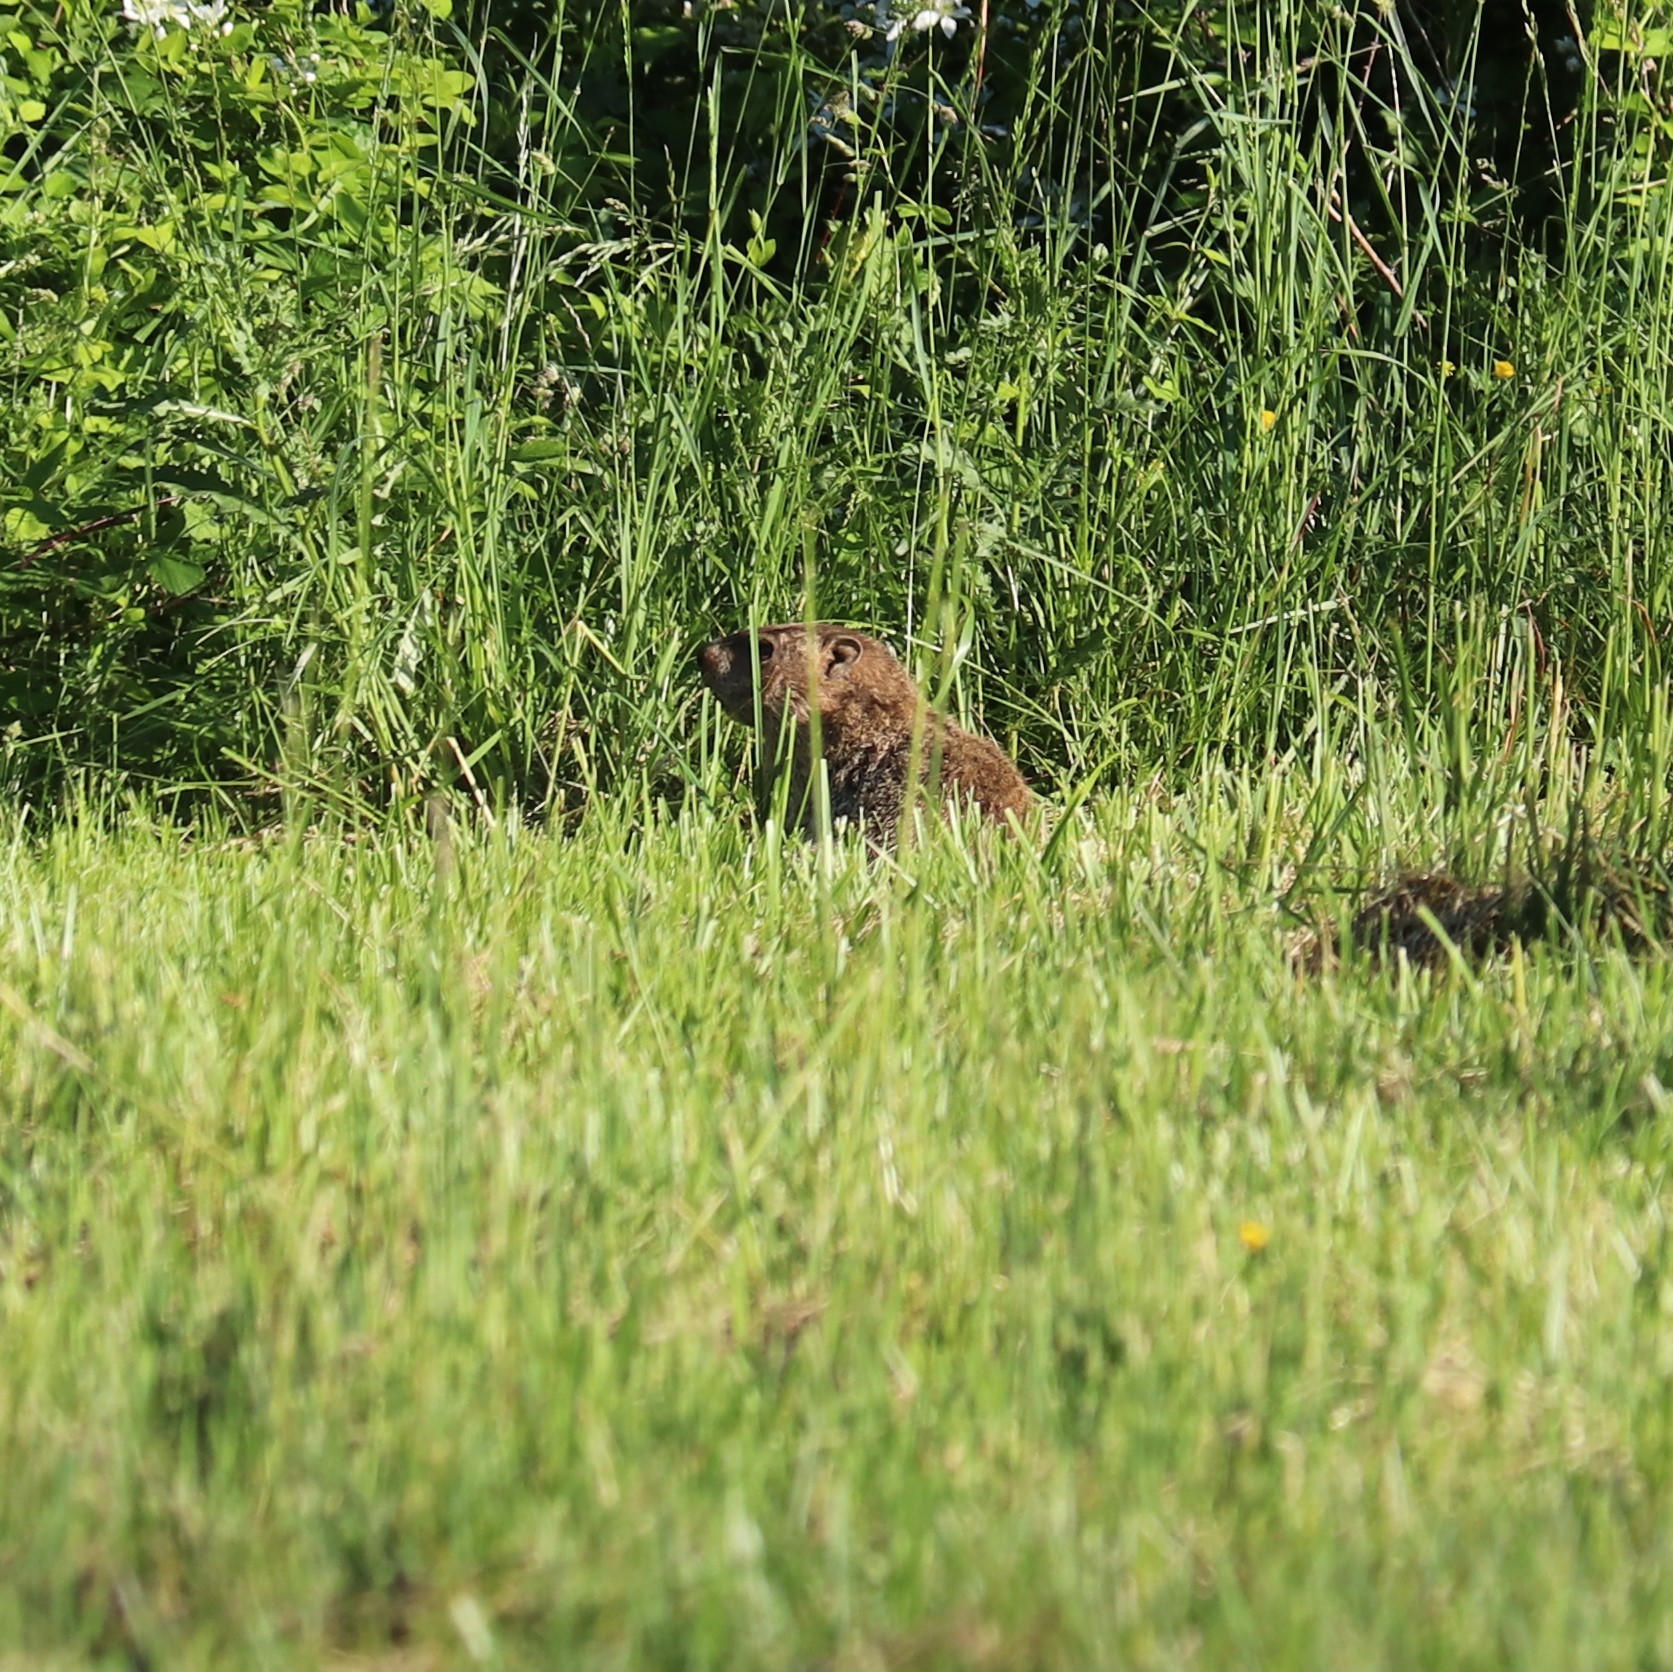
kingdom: Animalia
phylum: Chordata
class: Mammalia
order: Rodentia
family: Sciuridae
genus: Marmota
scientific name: Marmota monax
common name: Groundhog
